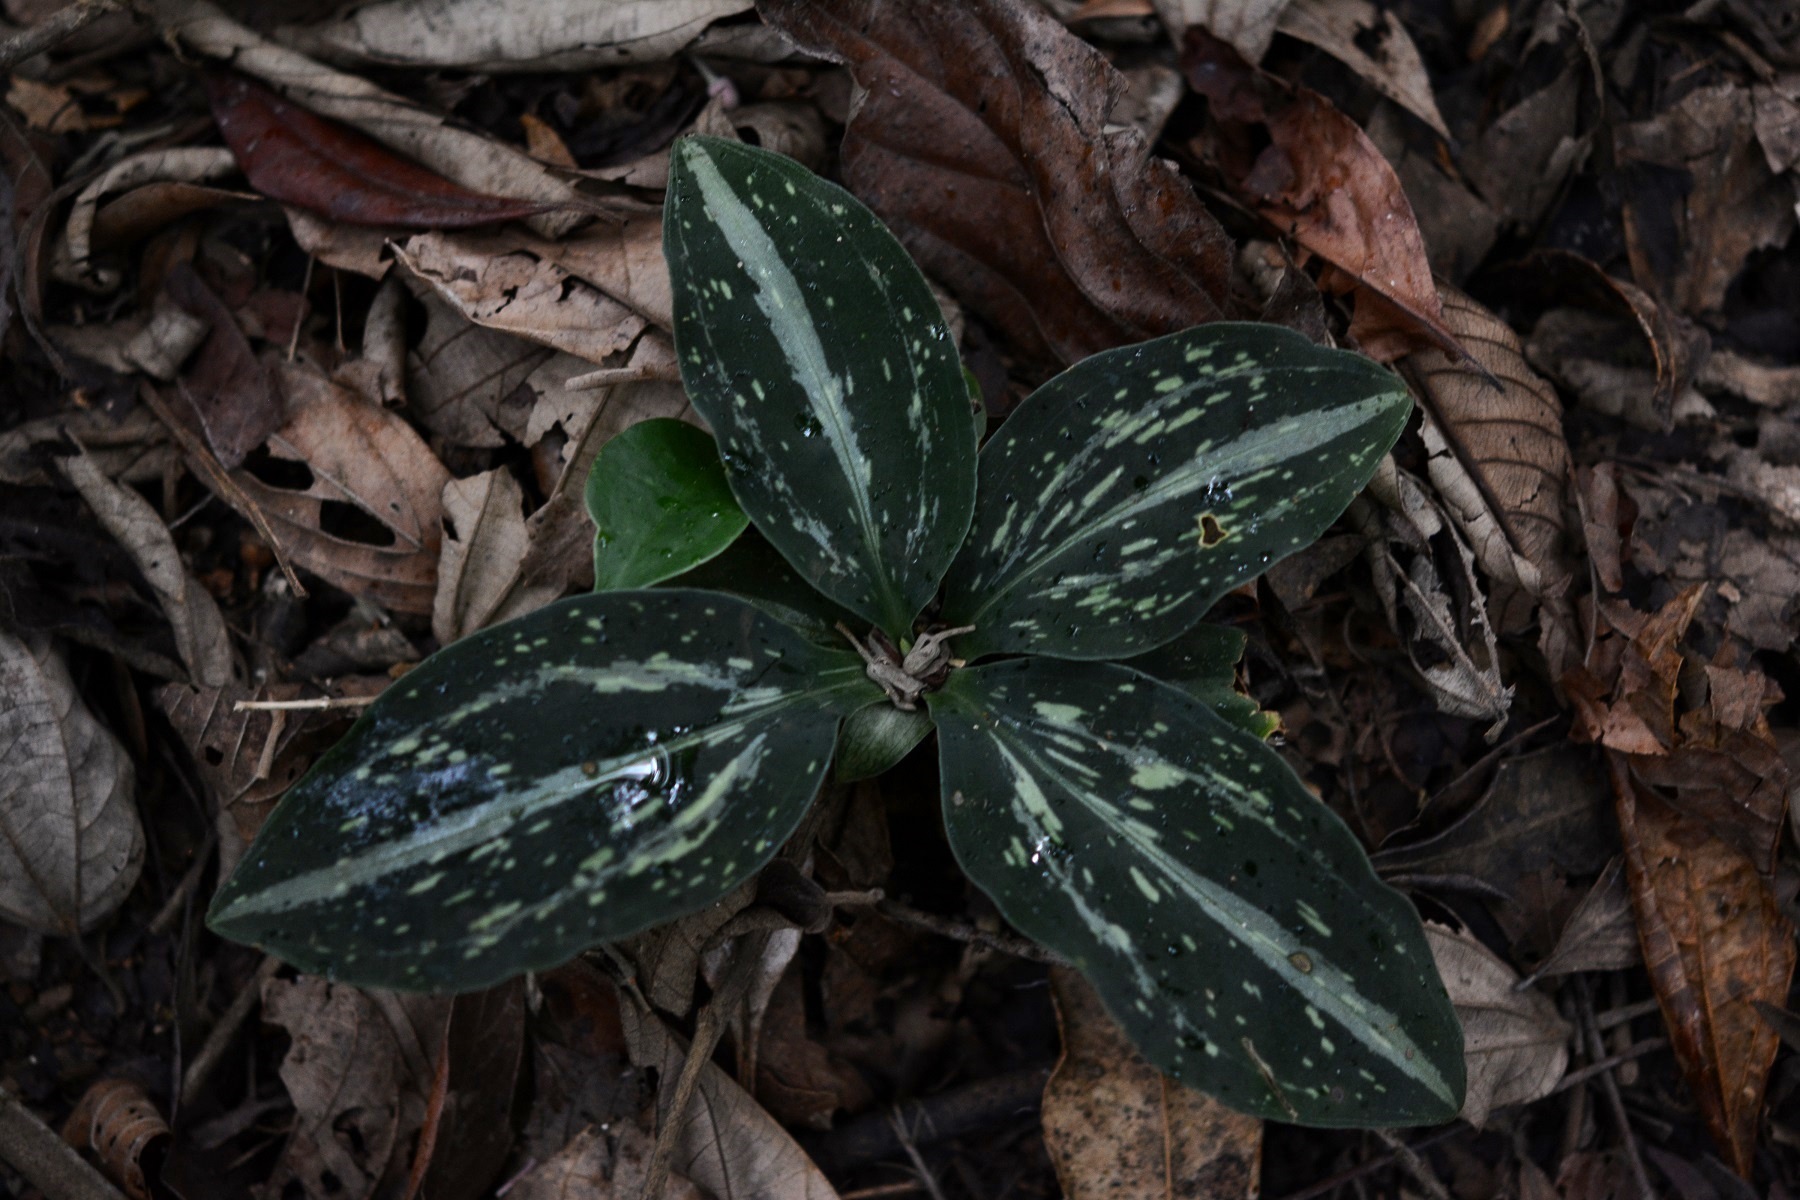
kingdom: Plantae
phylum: Tracheophyta
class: Liliopsida
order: Asparagales
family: Orchidaceae
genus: Sarcoglottis
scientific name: Sarcoglottis schaffneri
